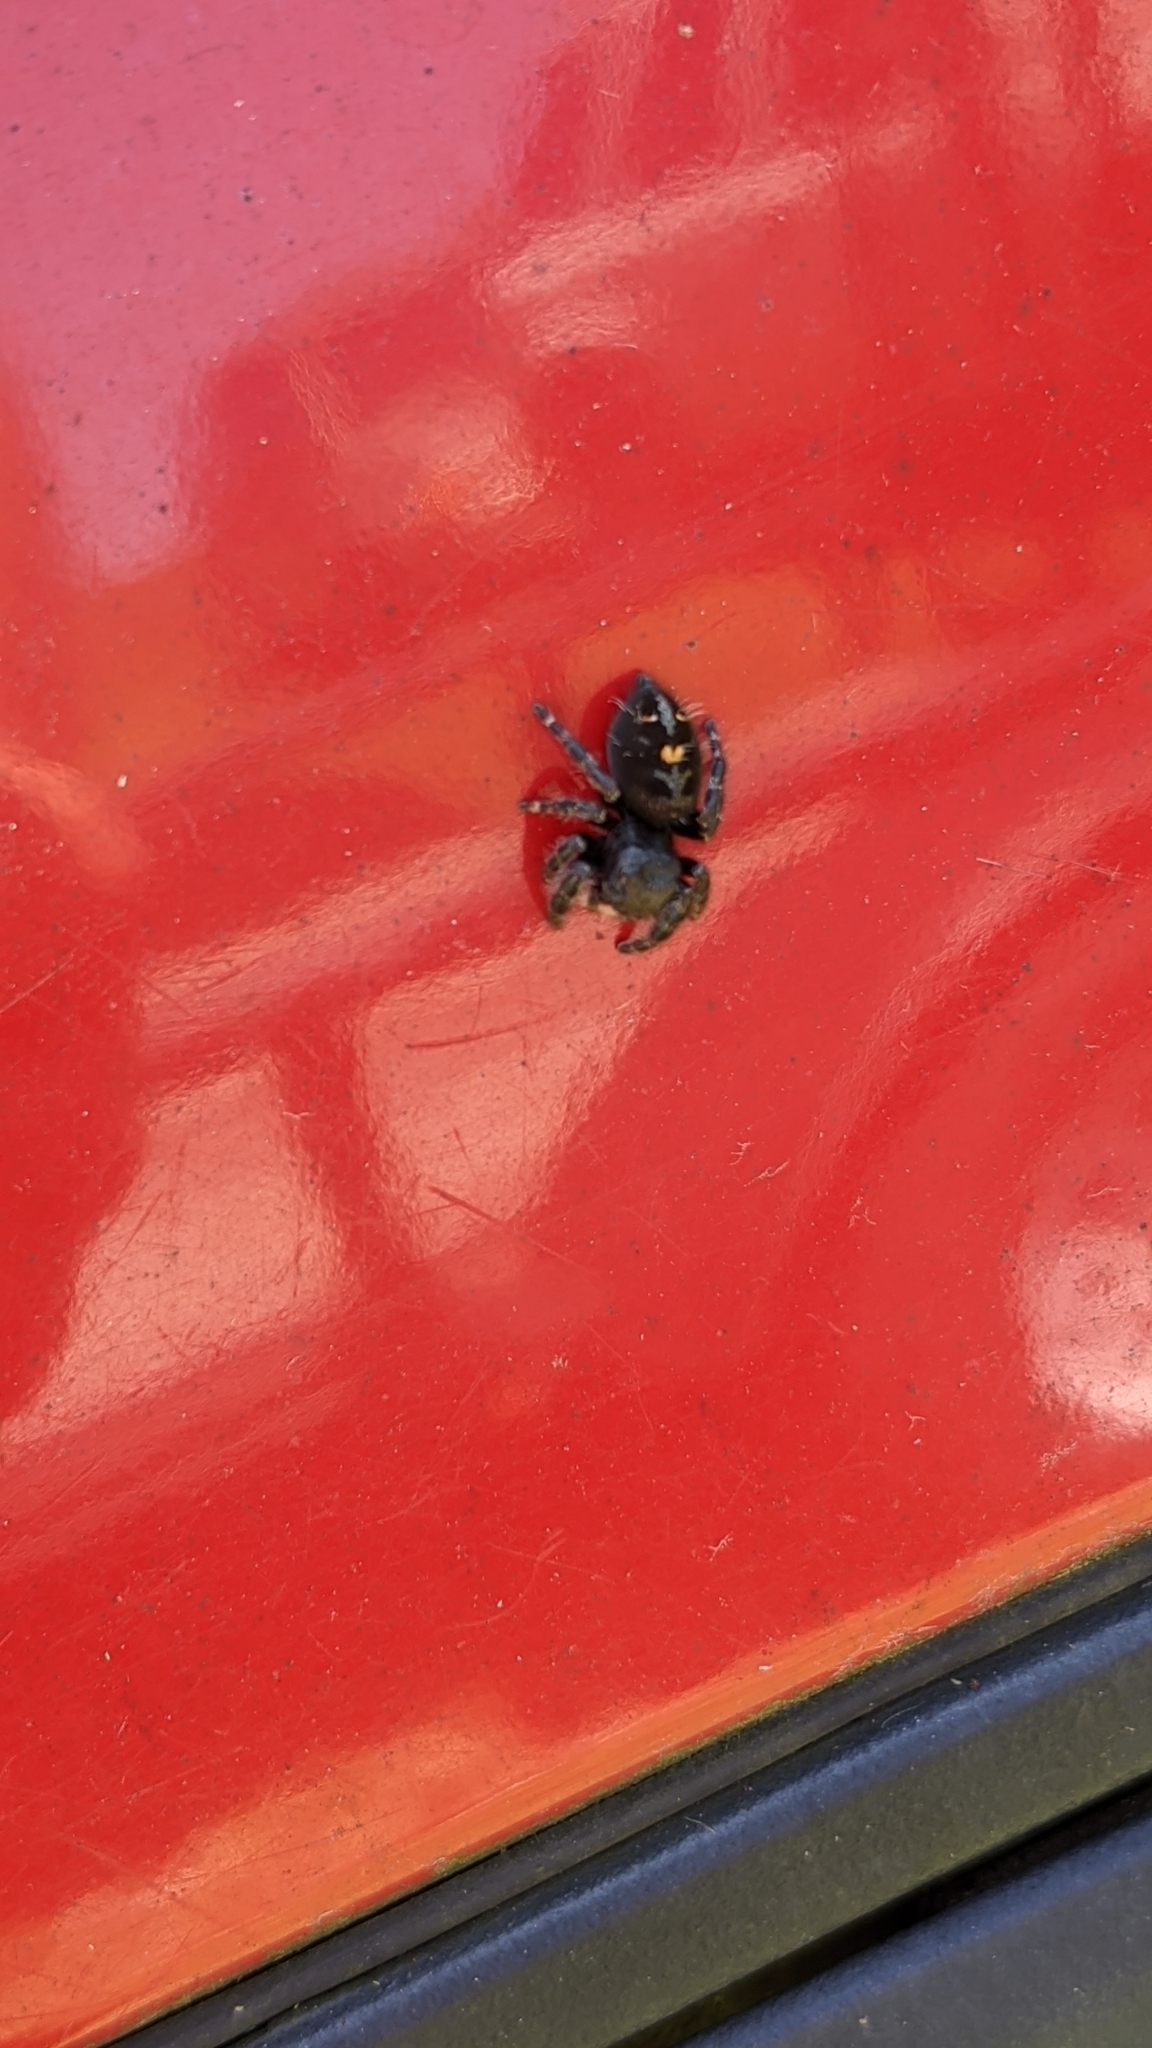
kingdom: Animalia
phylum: Arthropoda
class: Arachnida
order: Araneae
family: Salticidae
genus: Phidippus
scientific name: Phidippus audax
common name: Bold jumper
